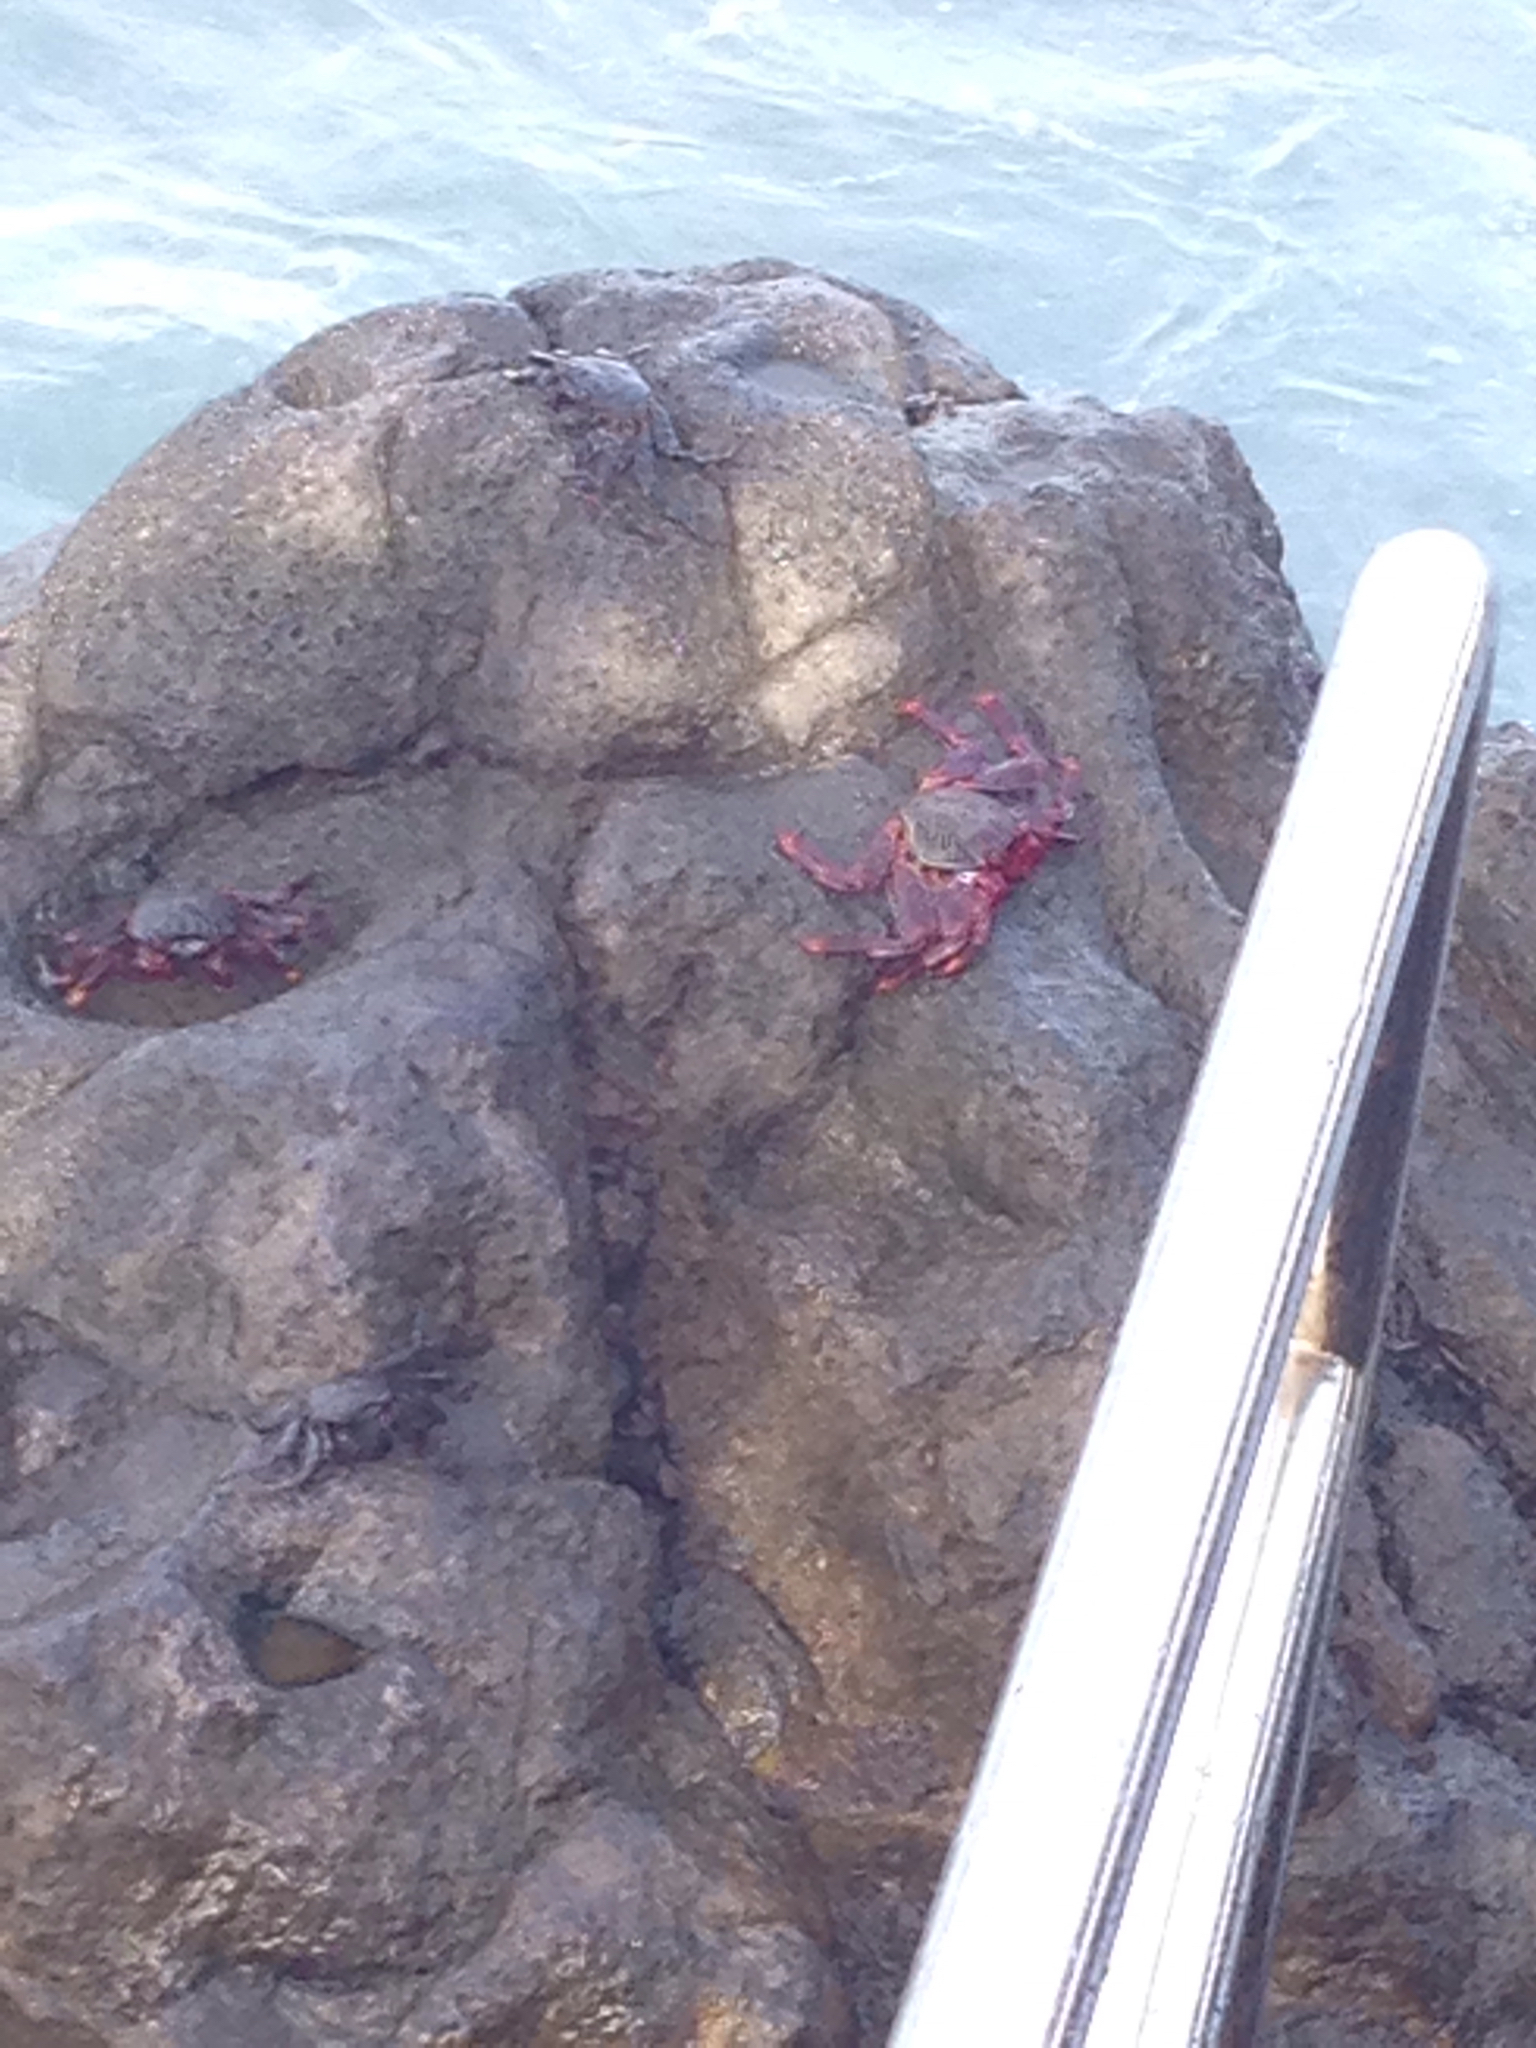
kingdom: Animalia
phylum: Arthropoda
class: Malacostraca
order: Decapoda
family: Grapsidae
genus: Grapsus
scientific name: Grapsus adscensionis
